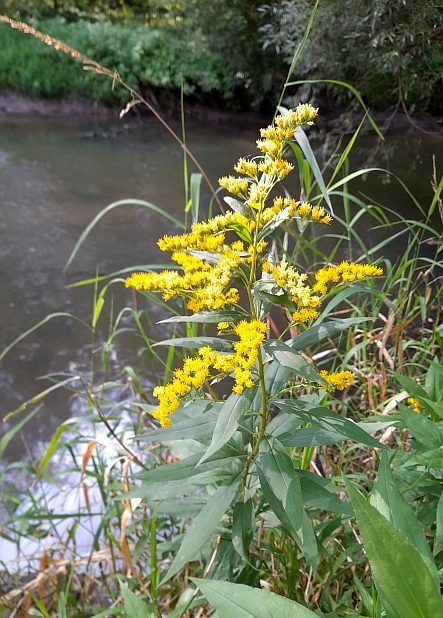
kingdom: Plantae
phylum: Tracheophyta
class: Magnoliopsida
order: Asterales
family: Asteraceae
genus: Solidago
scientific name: Solidago gigantea
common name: Giant goldenrod
